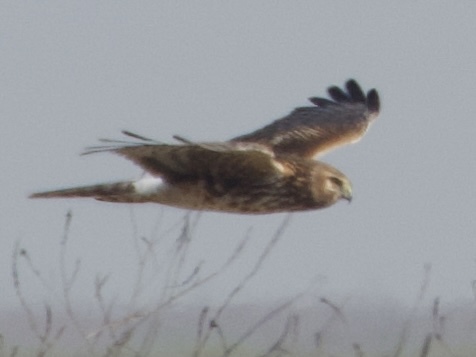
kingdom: Animalia
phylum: Chordata
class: Aves
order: Accipitriformes
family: Accipitridae
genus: Circus
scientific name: Circus cyaneus
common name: Hen harrier
